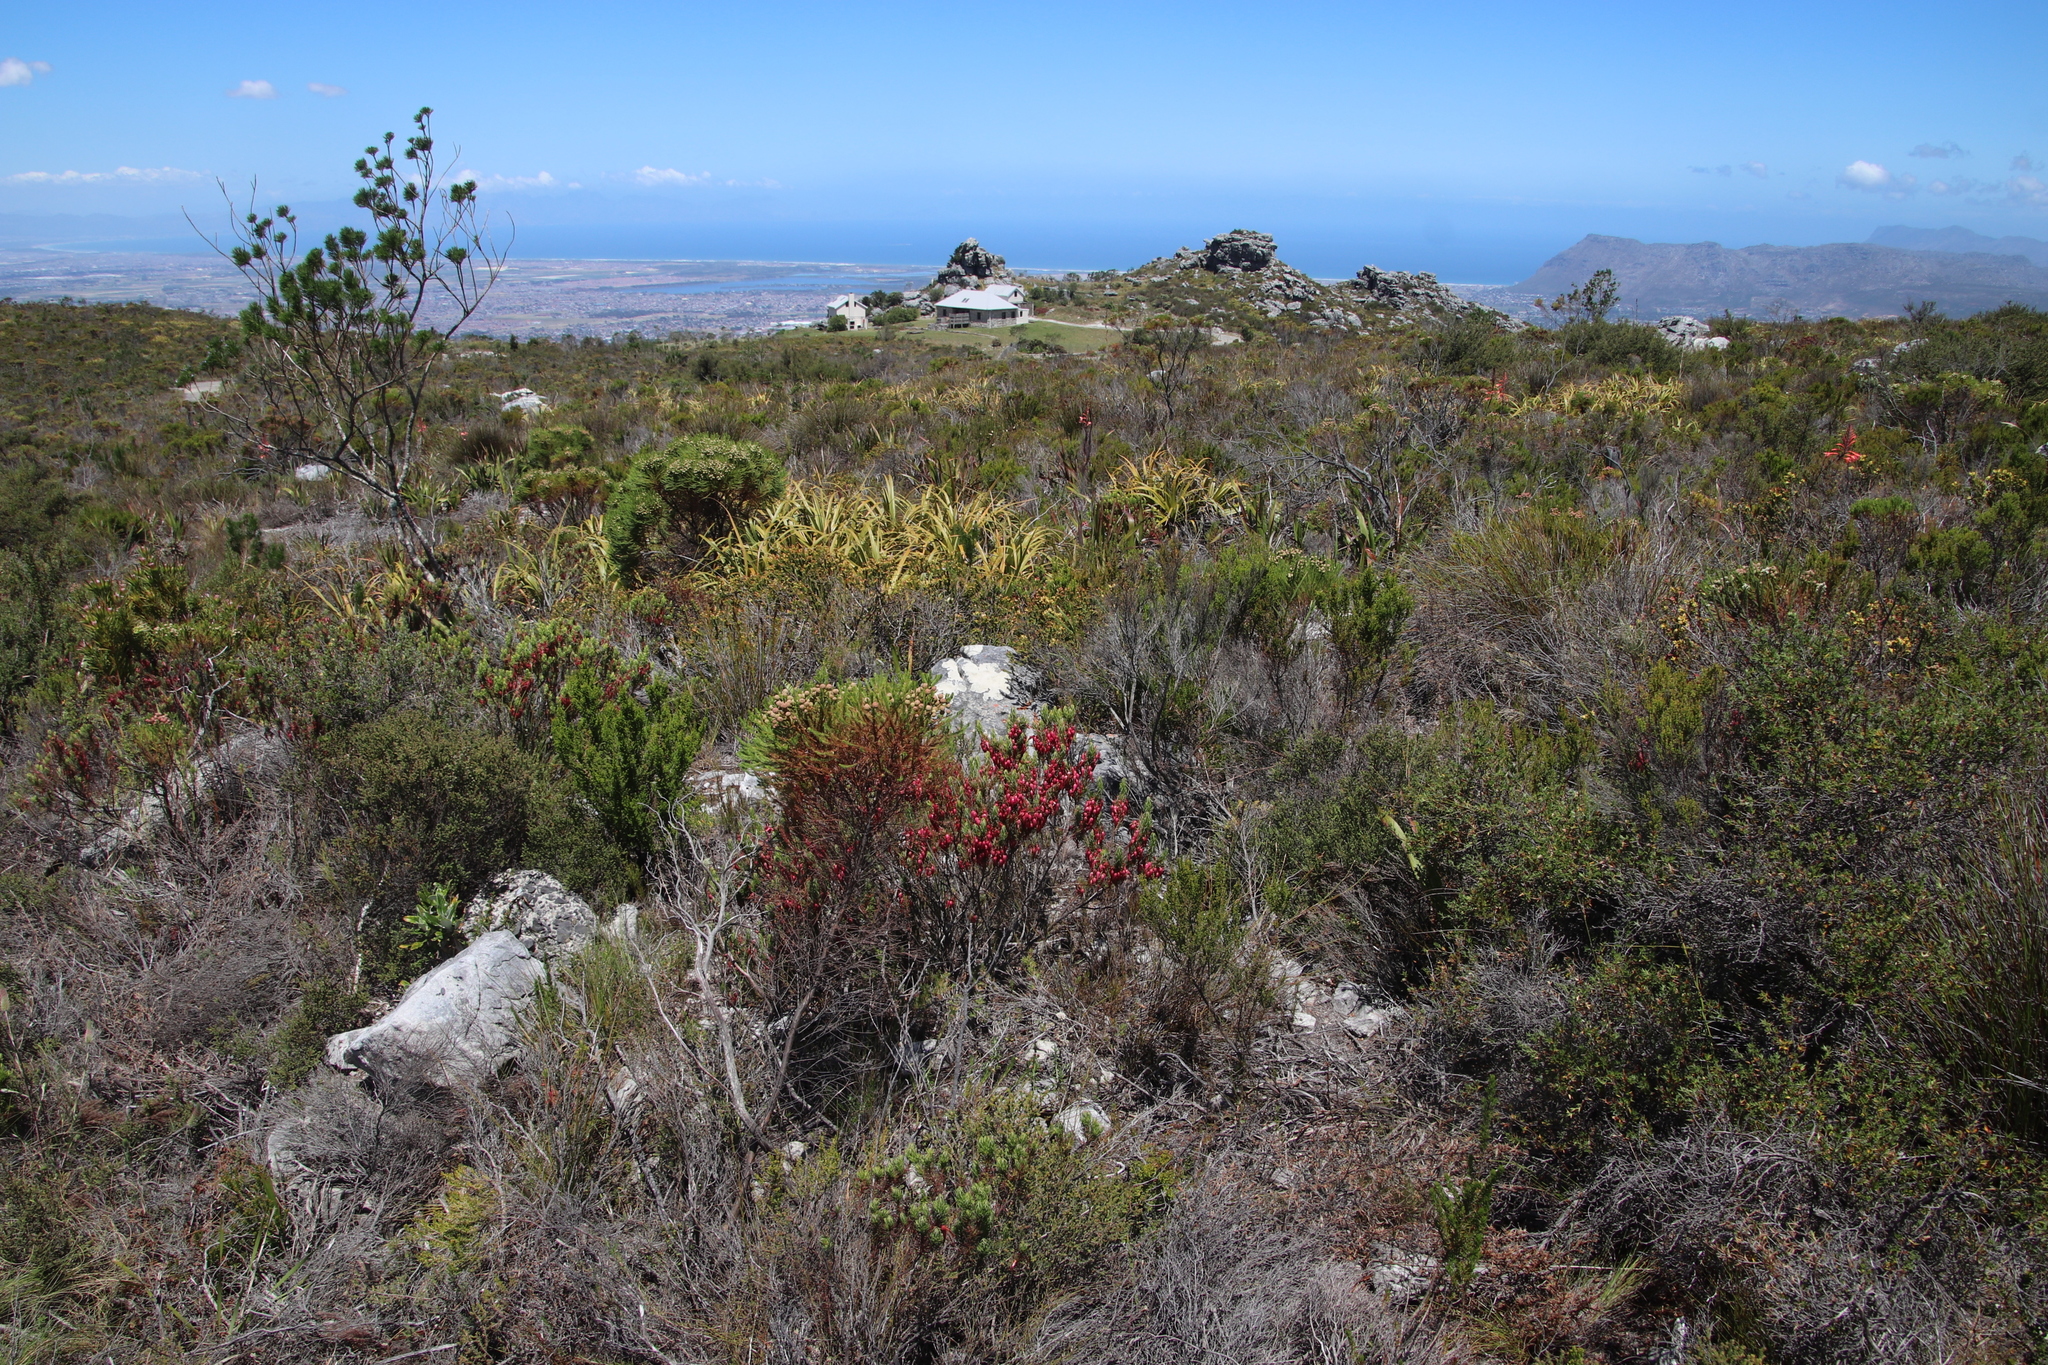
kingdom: Plantae
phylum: Tracheophyta
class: Magnoliopsida
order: Ericales
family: Ericaceae
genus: Erica
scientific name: Erica plukenetii
